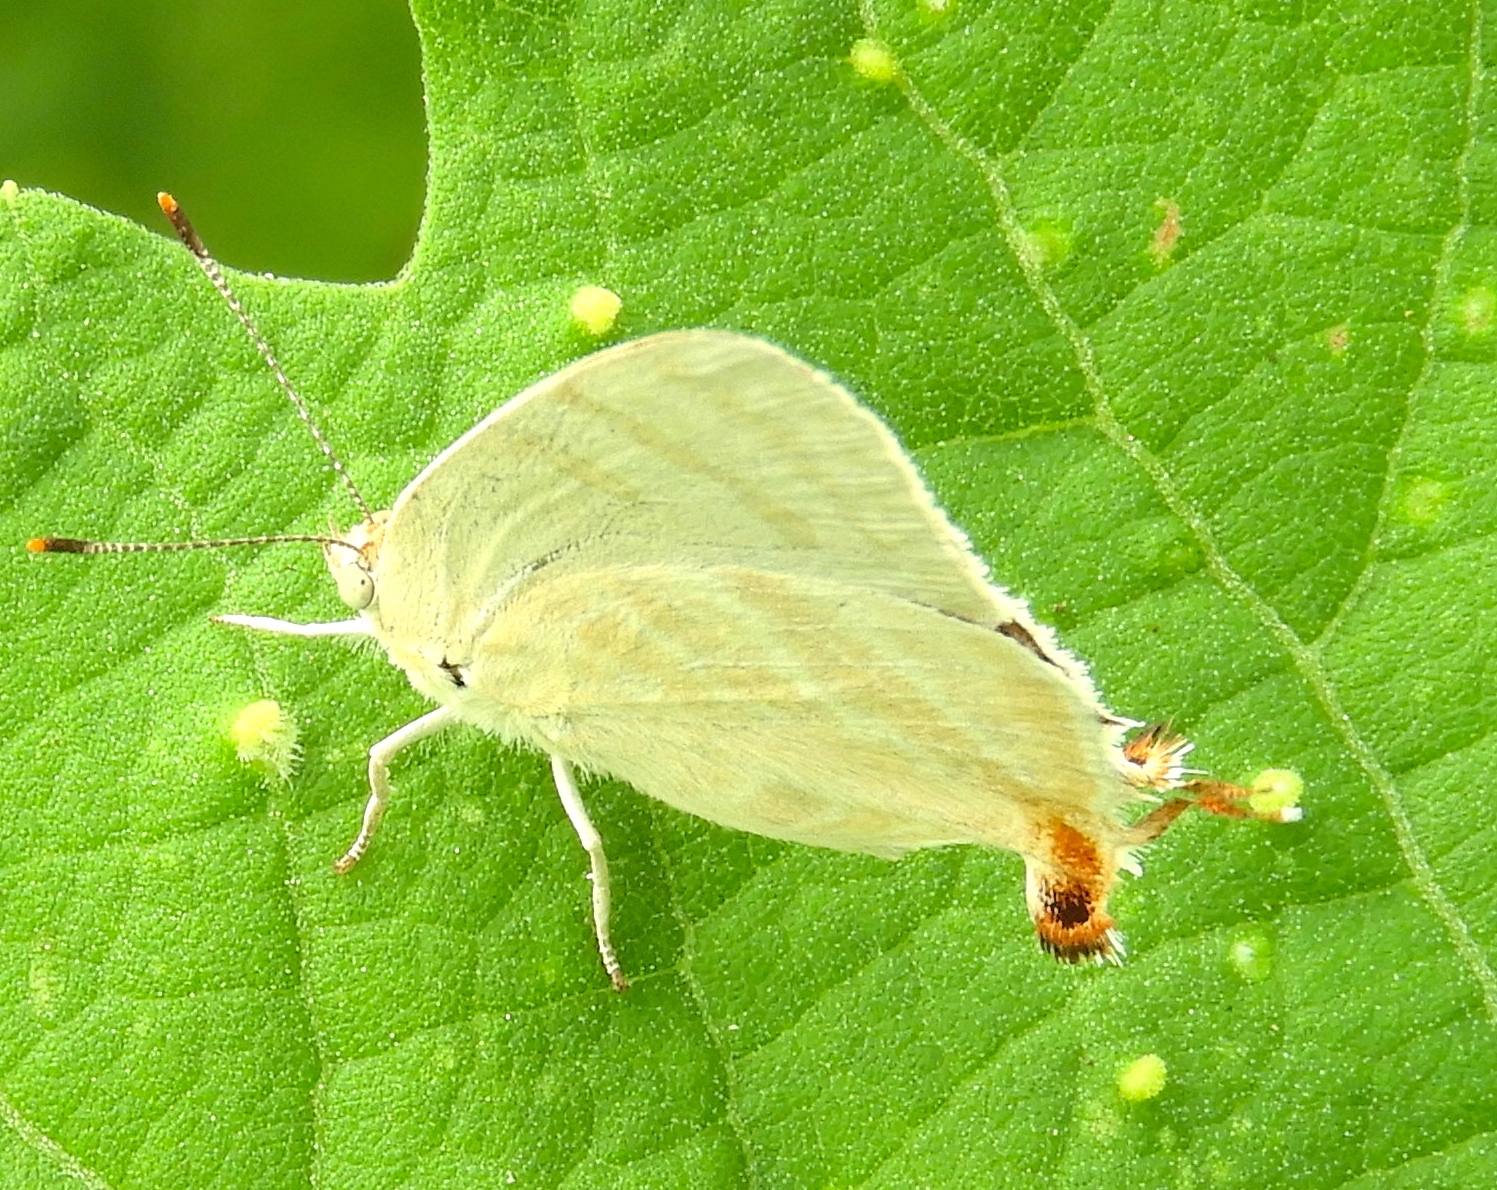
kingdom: Animalia
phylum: Arthropoda
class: Insecta
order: Lepidoptera
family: Lycaenidae
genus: Dolymorpha
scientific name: Dolymorpha jada
